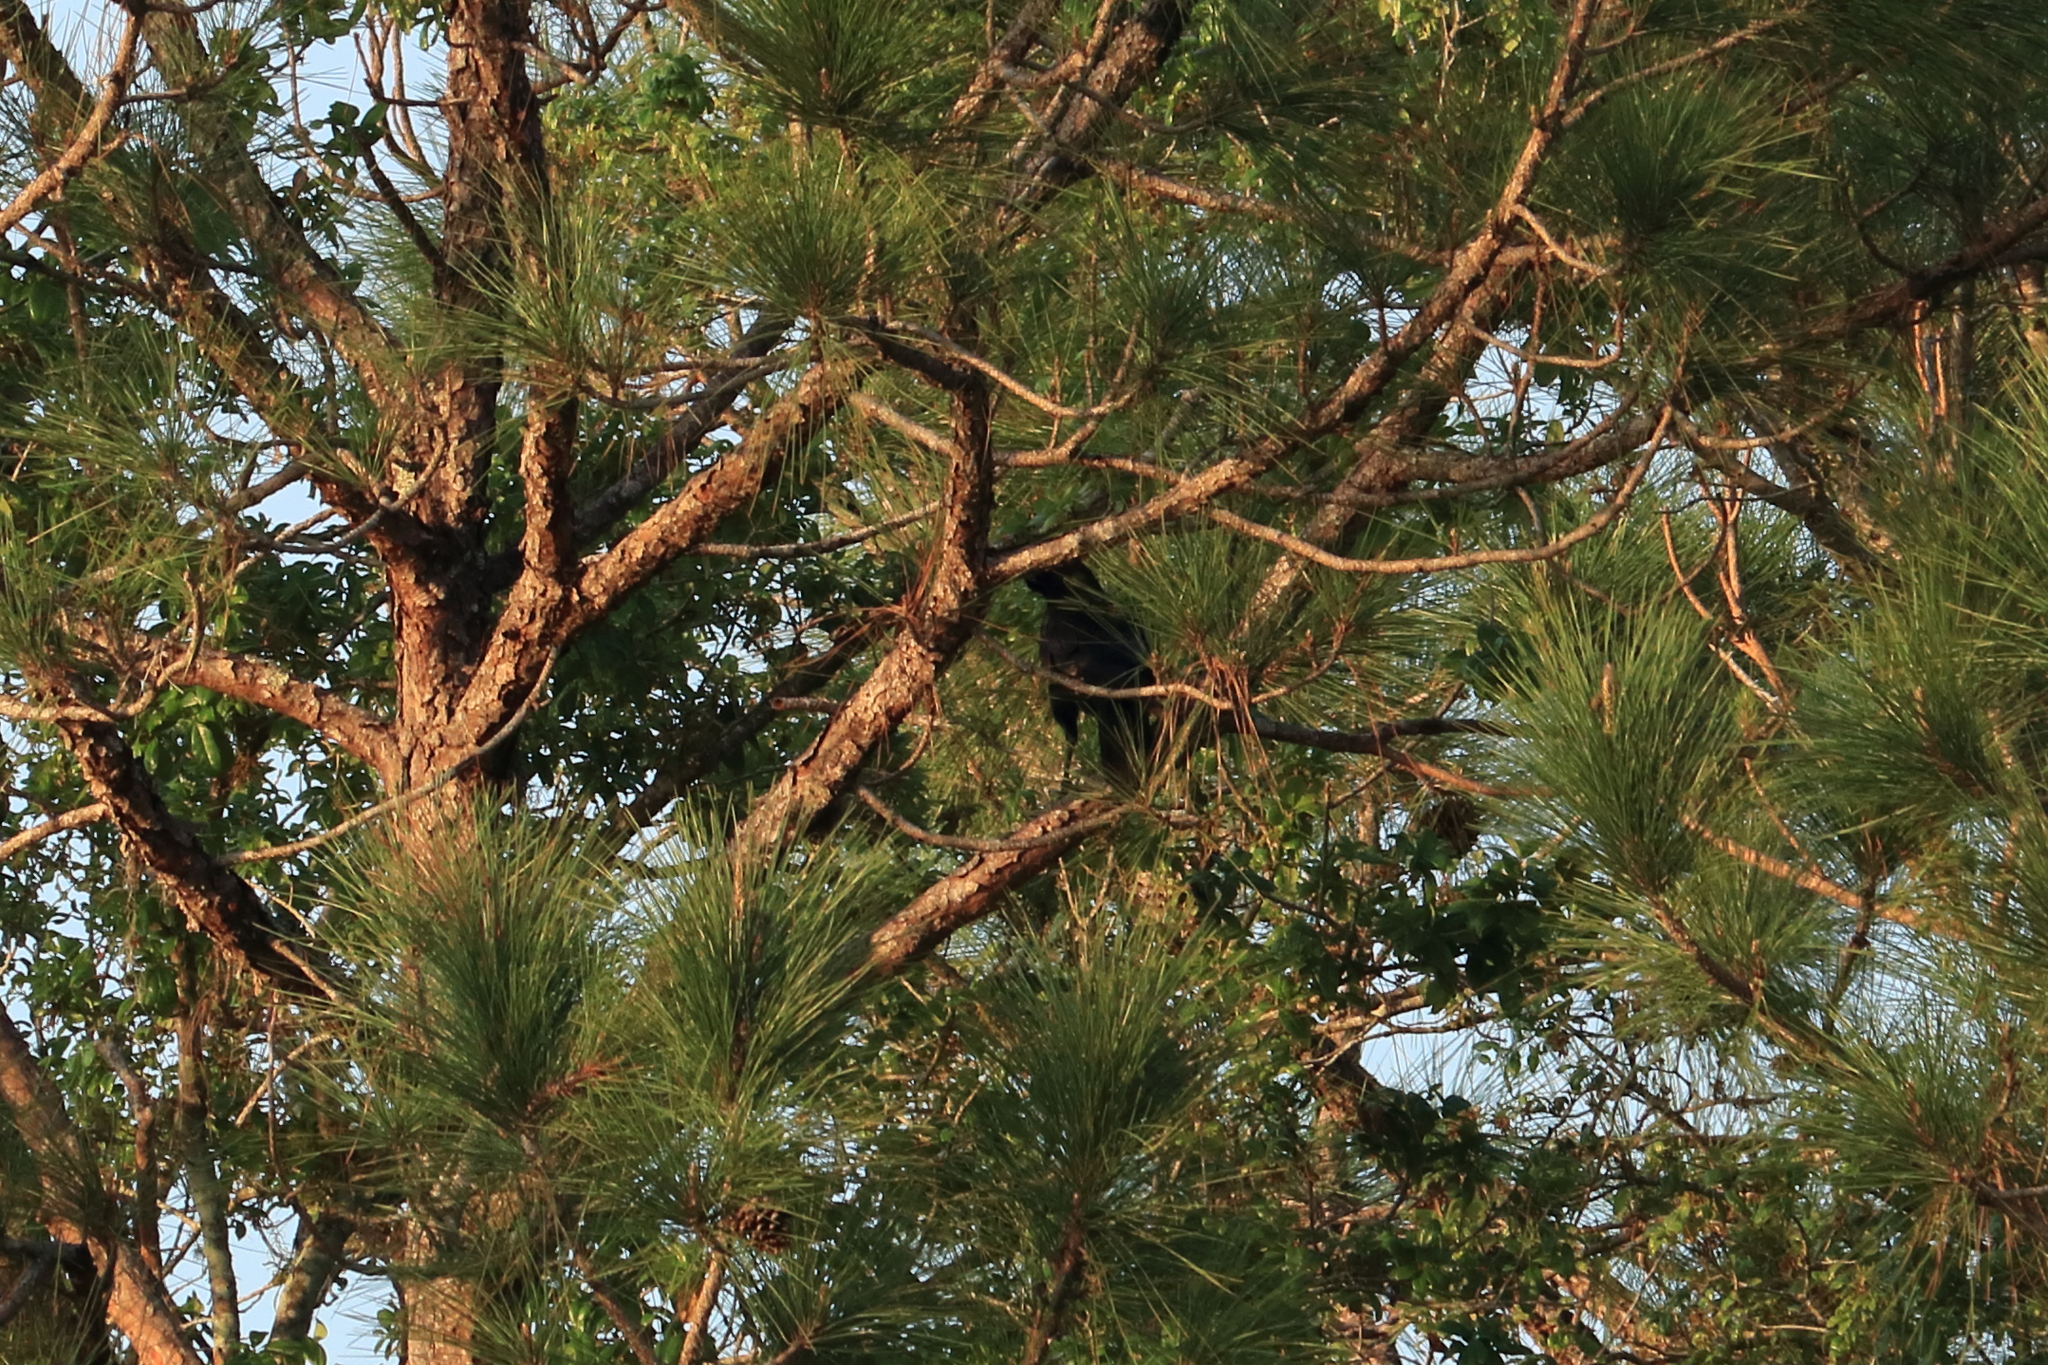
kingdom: Animalia
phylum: Chordata
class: Aves
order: Passeriformes
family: Corvidae
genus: Corvus
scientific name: Corvus
